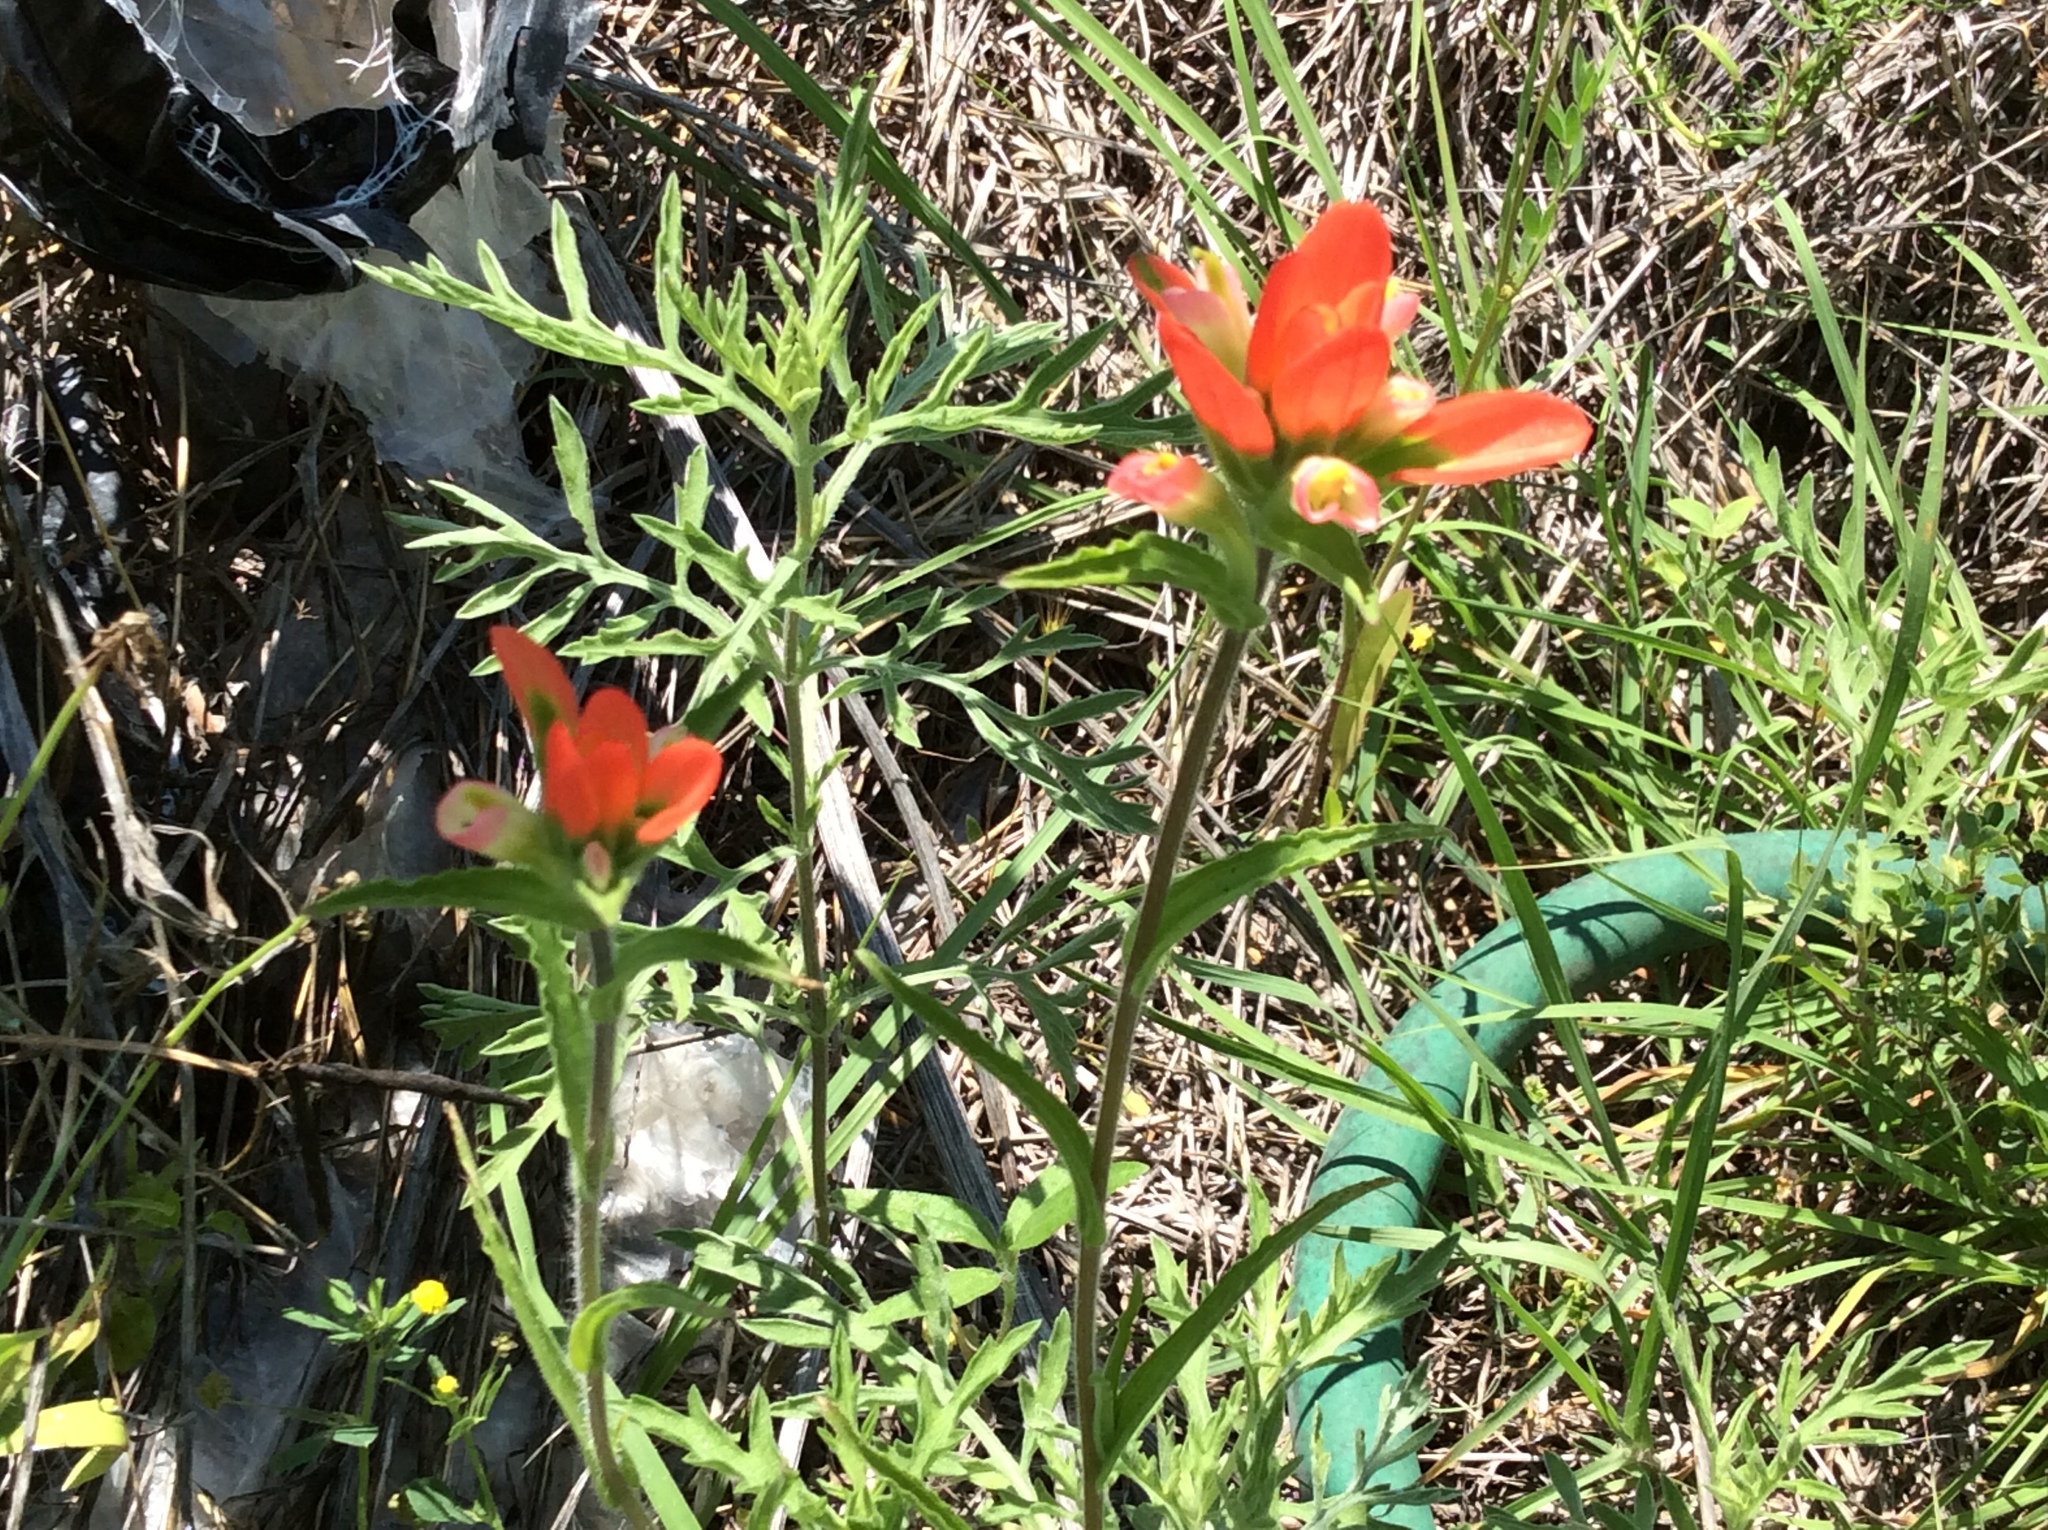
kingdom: Plantae
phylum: Tracheophyta
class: Magnoliopsida
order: Lamiales
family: Orobanchaceae
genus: Castilleja
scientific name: Castilleja indivisa
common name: Texas paintbrush
